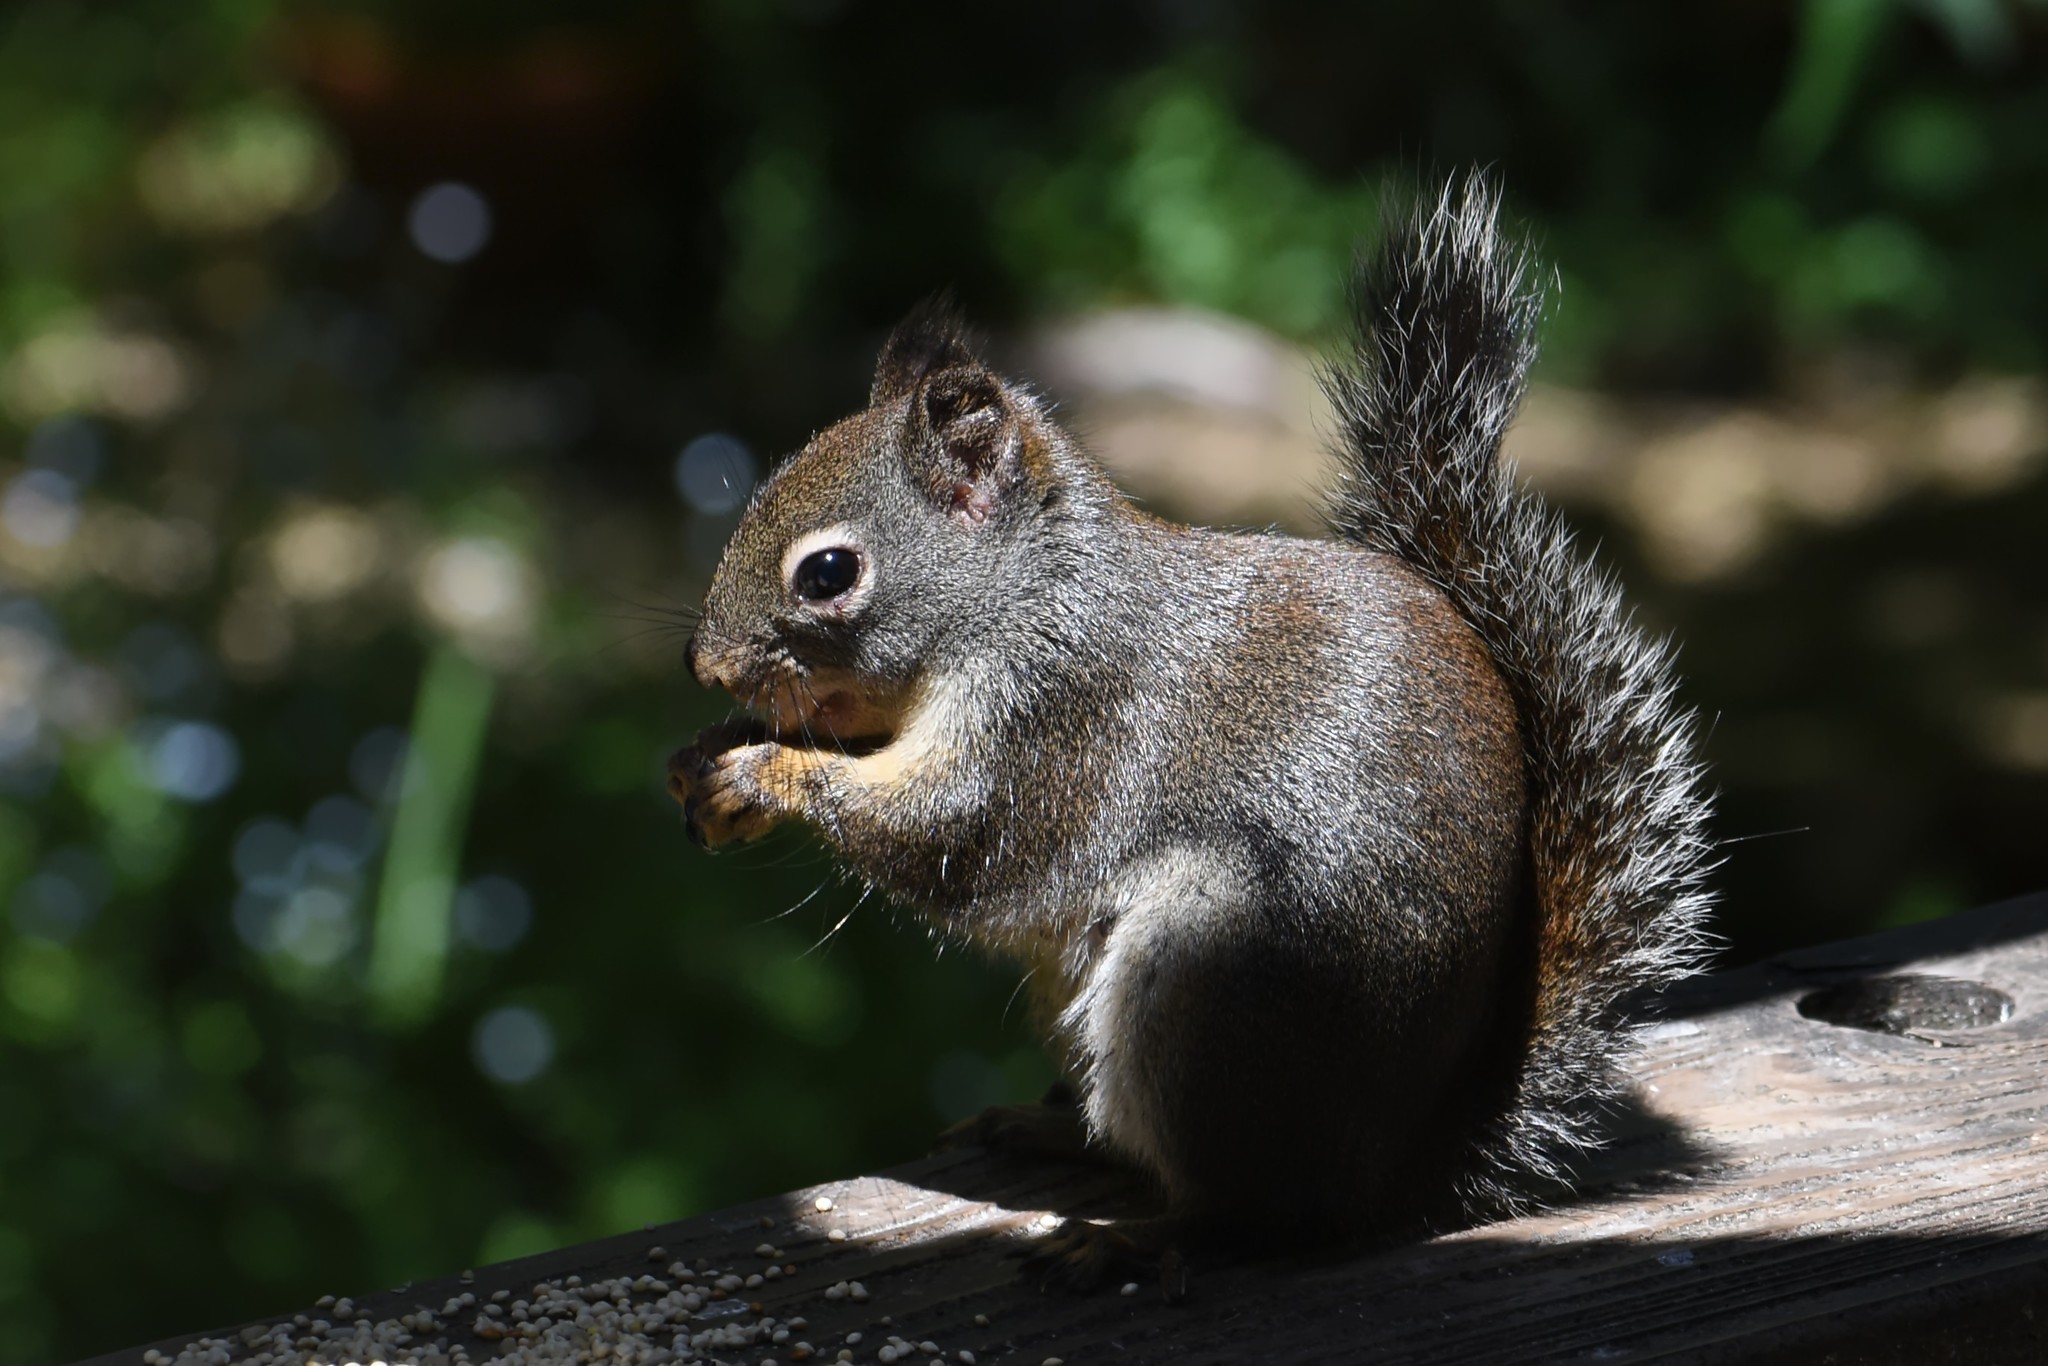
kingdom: Animalia
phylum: Chordata
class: Mammalia
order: Rodentia
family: Sciuridae
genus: Tamiasciurus
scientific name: Tamiasciurus douglasii
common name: Douglas's squirrel
